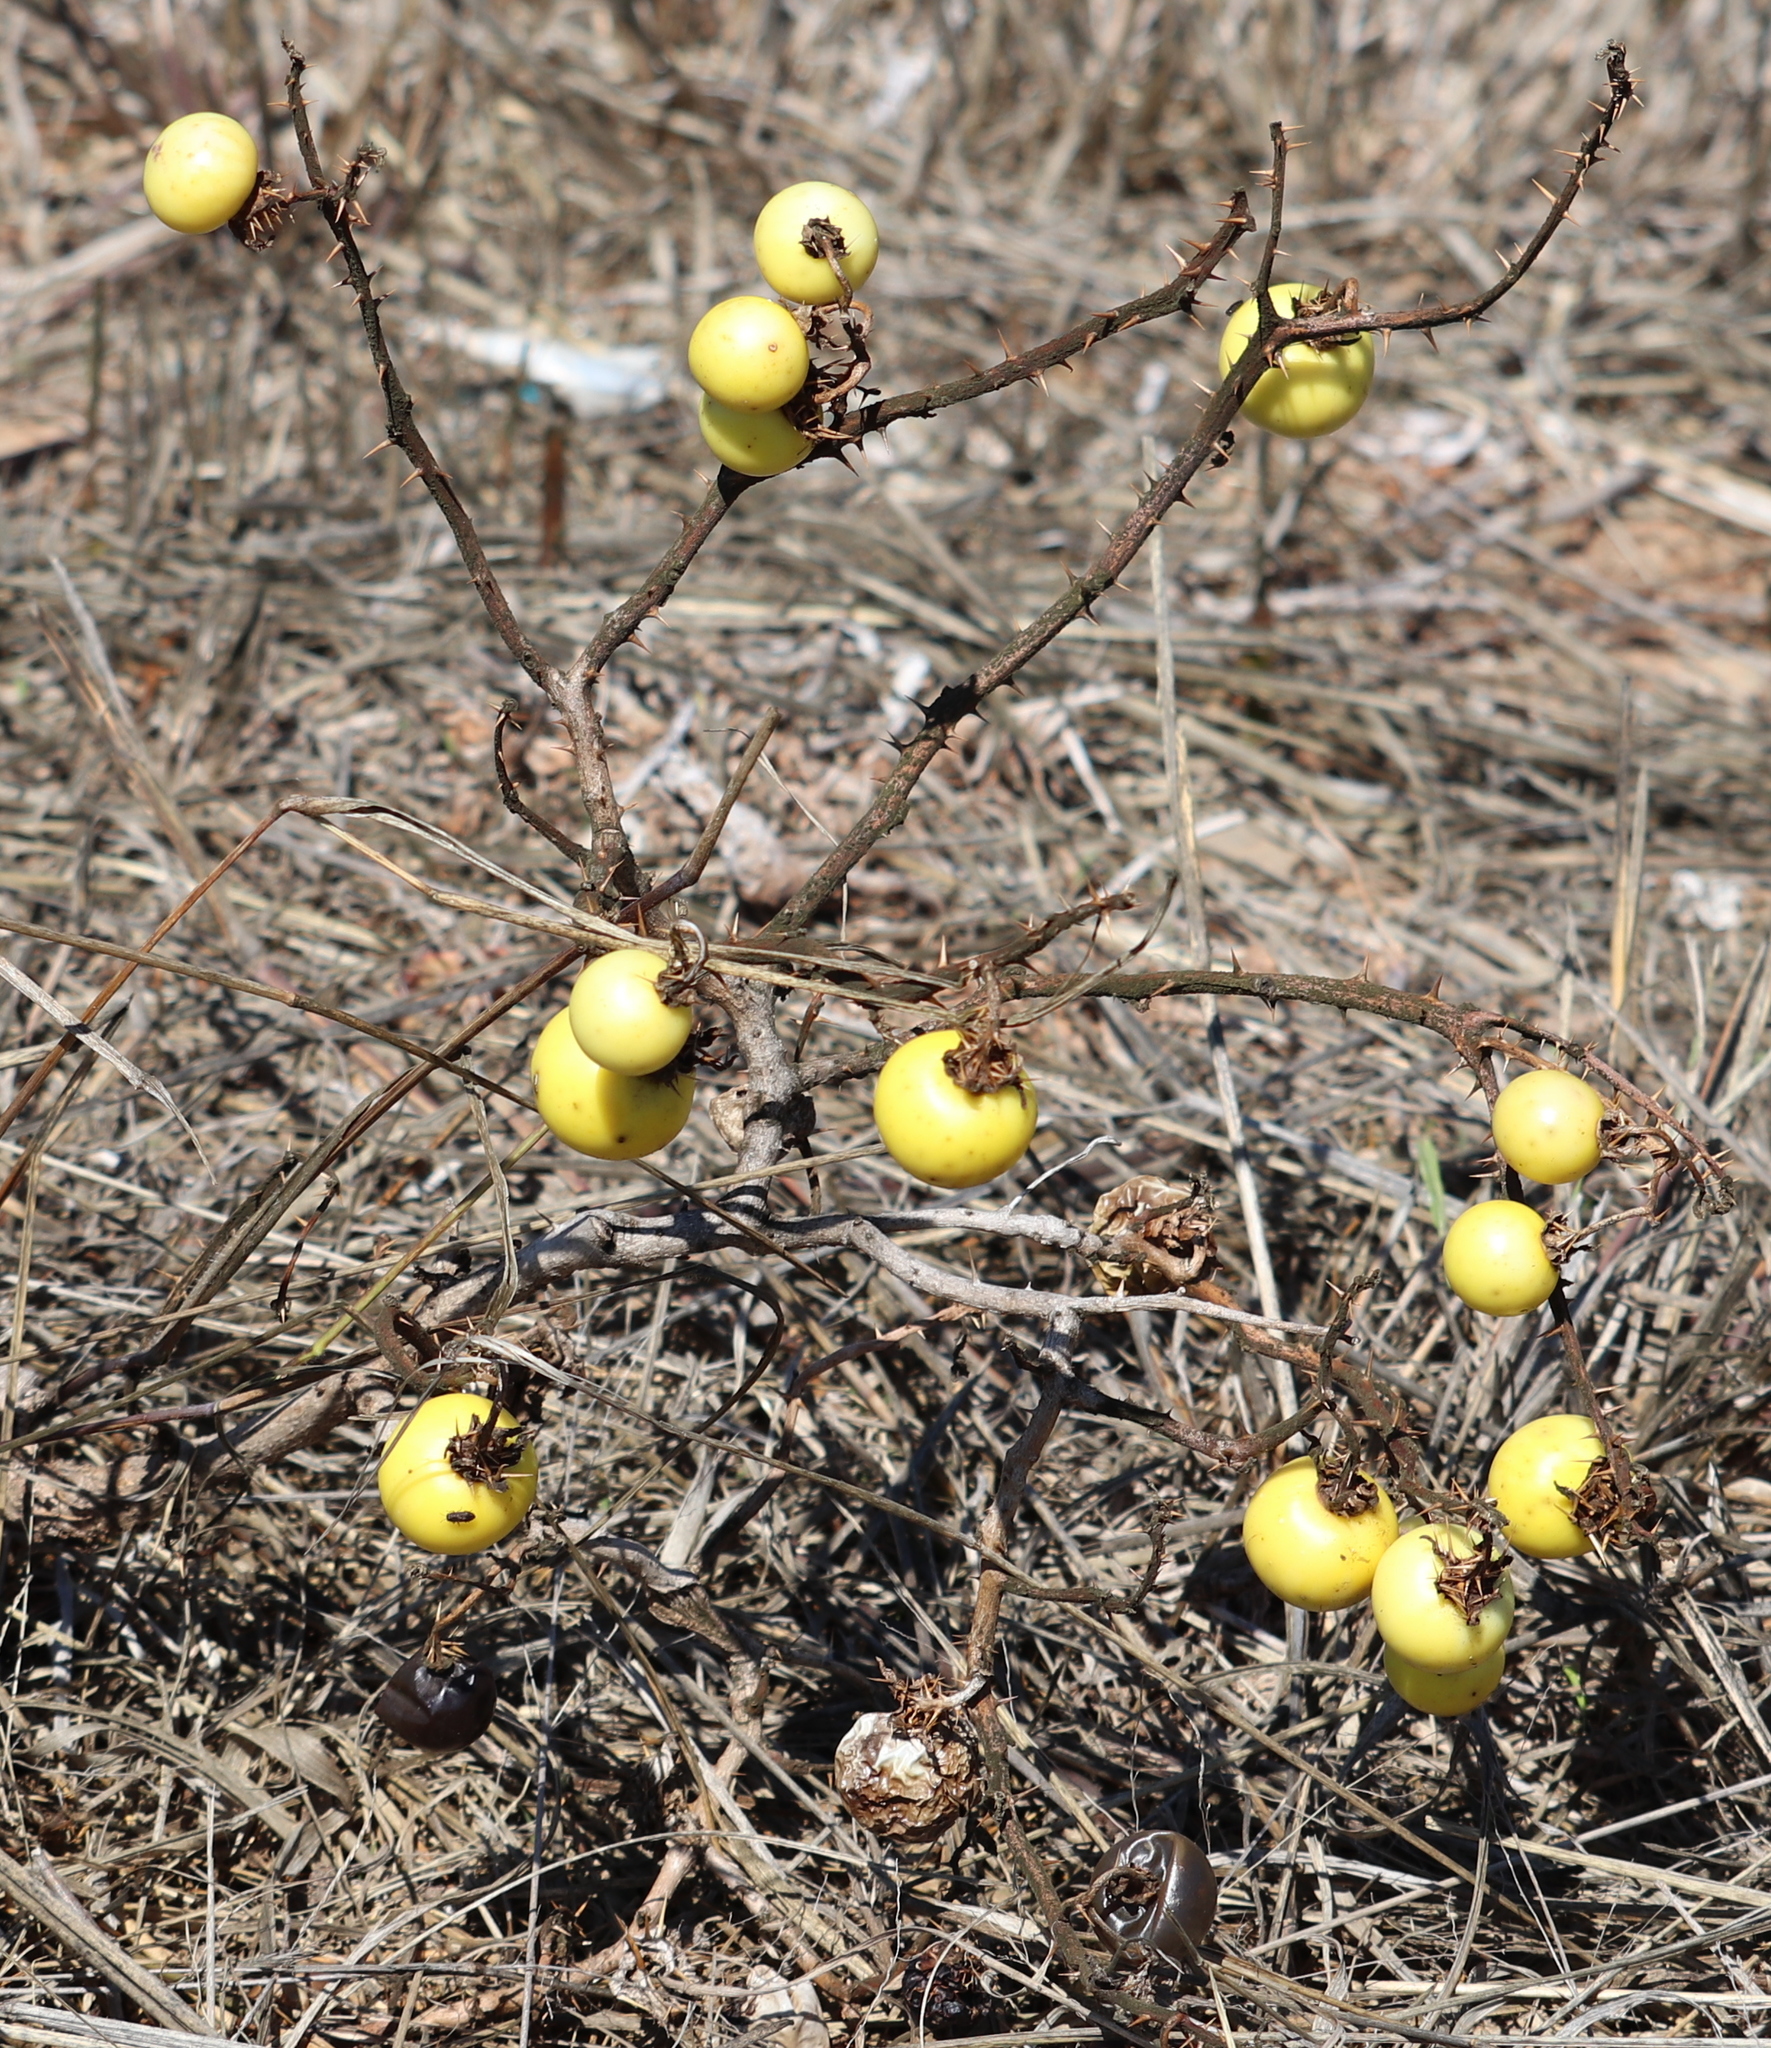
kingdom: Plantae
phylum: Tracheophyta
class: Magnoliopsida
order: Solanales
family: Solanaceae
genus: Solanum
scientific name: Solanum linnaeanum
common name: Nightshade
